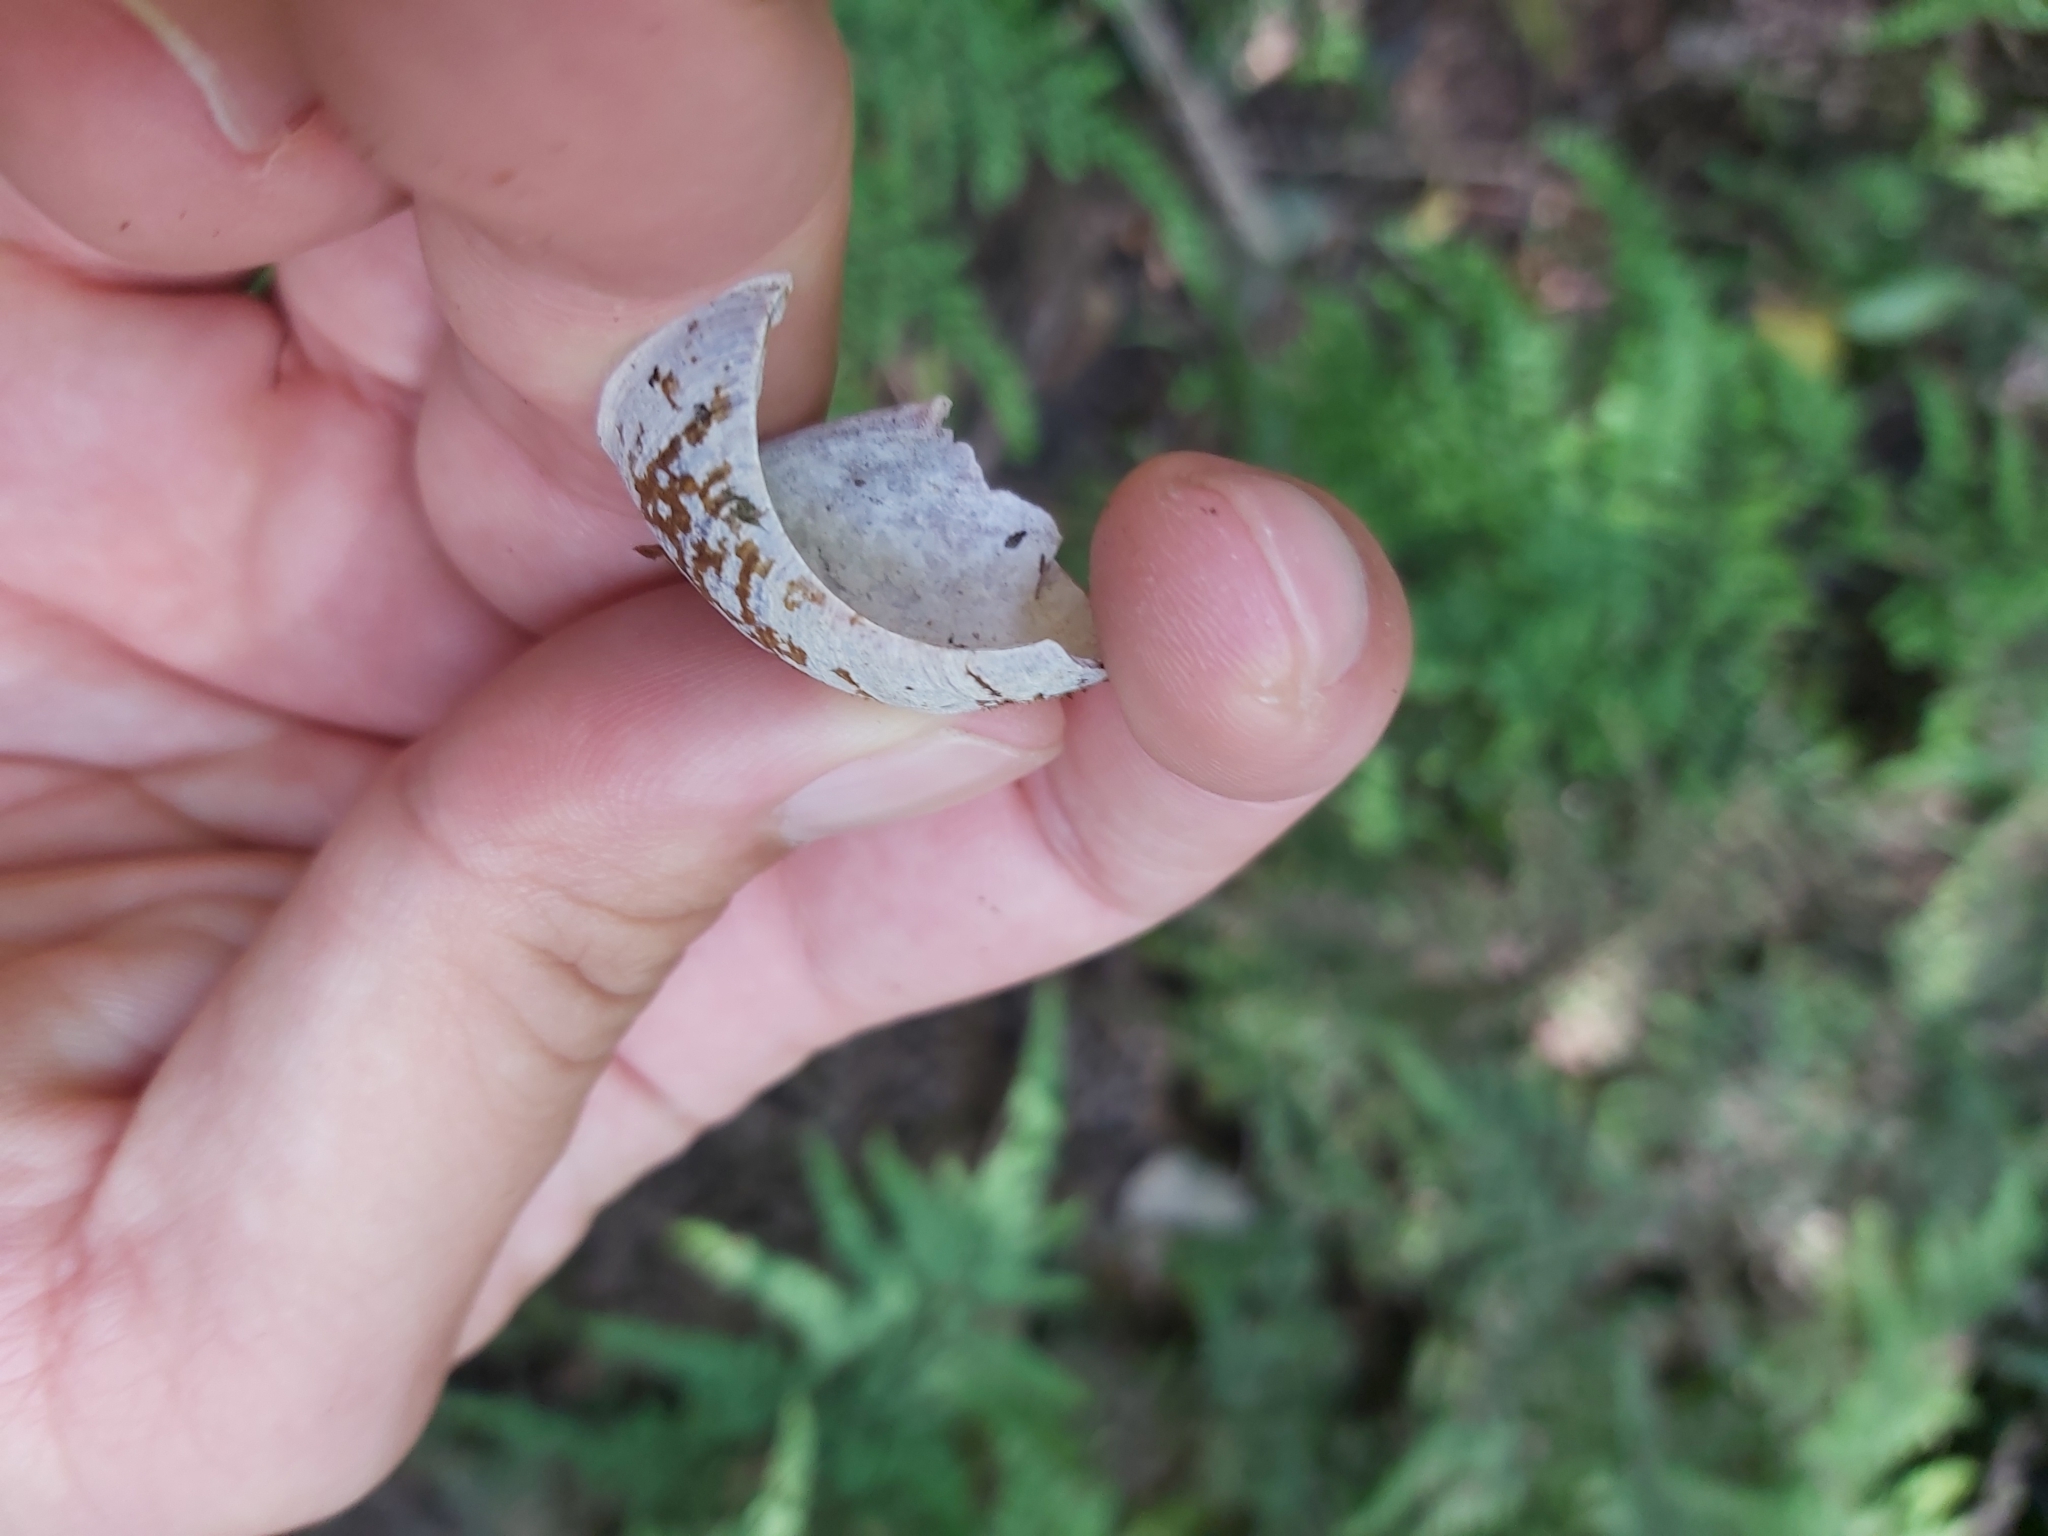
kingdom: Animalia
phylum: Mollusca
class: Gastropoda
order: Stylommatophora
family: Camaenidae
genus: Sauroconcha
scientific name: Sauroconcha gulosa
